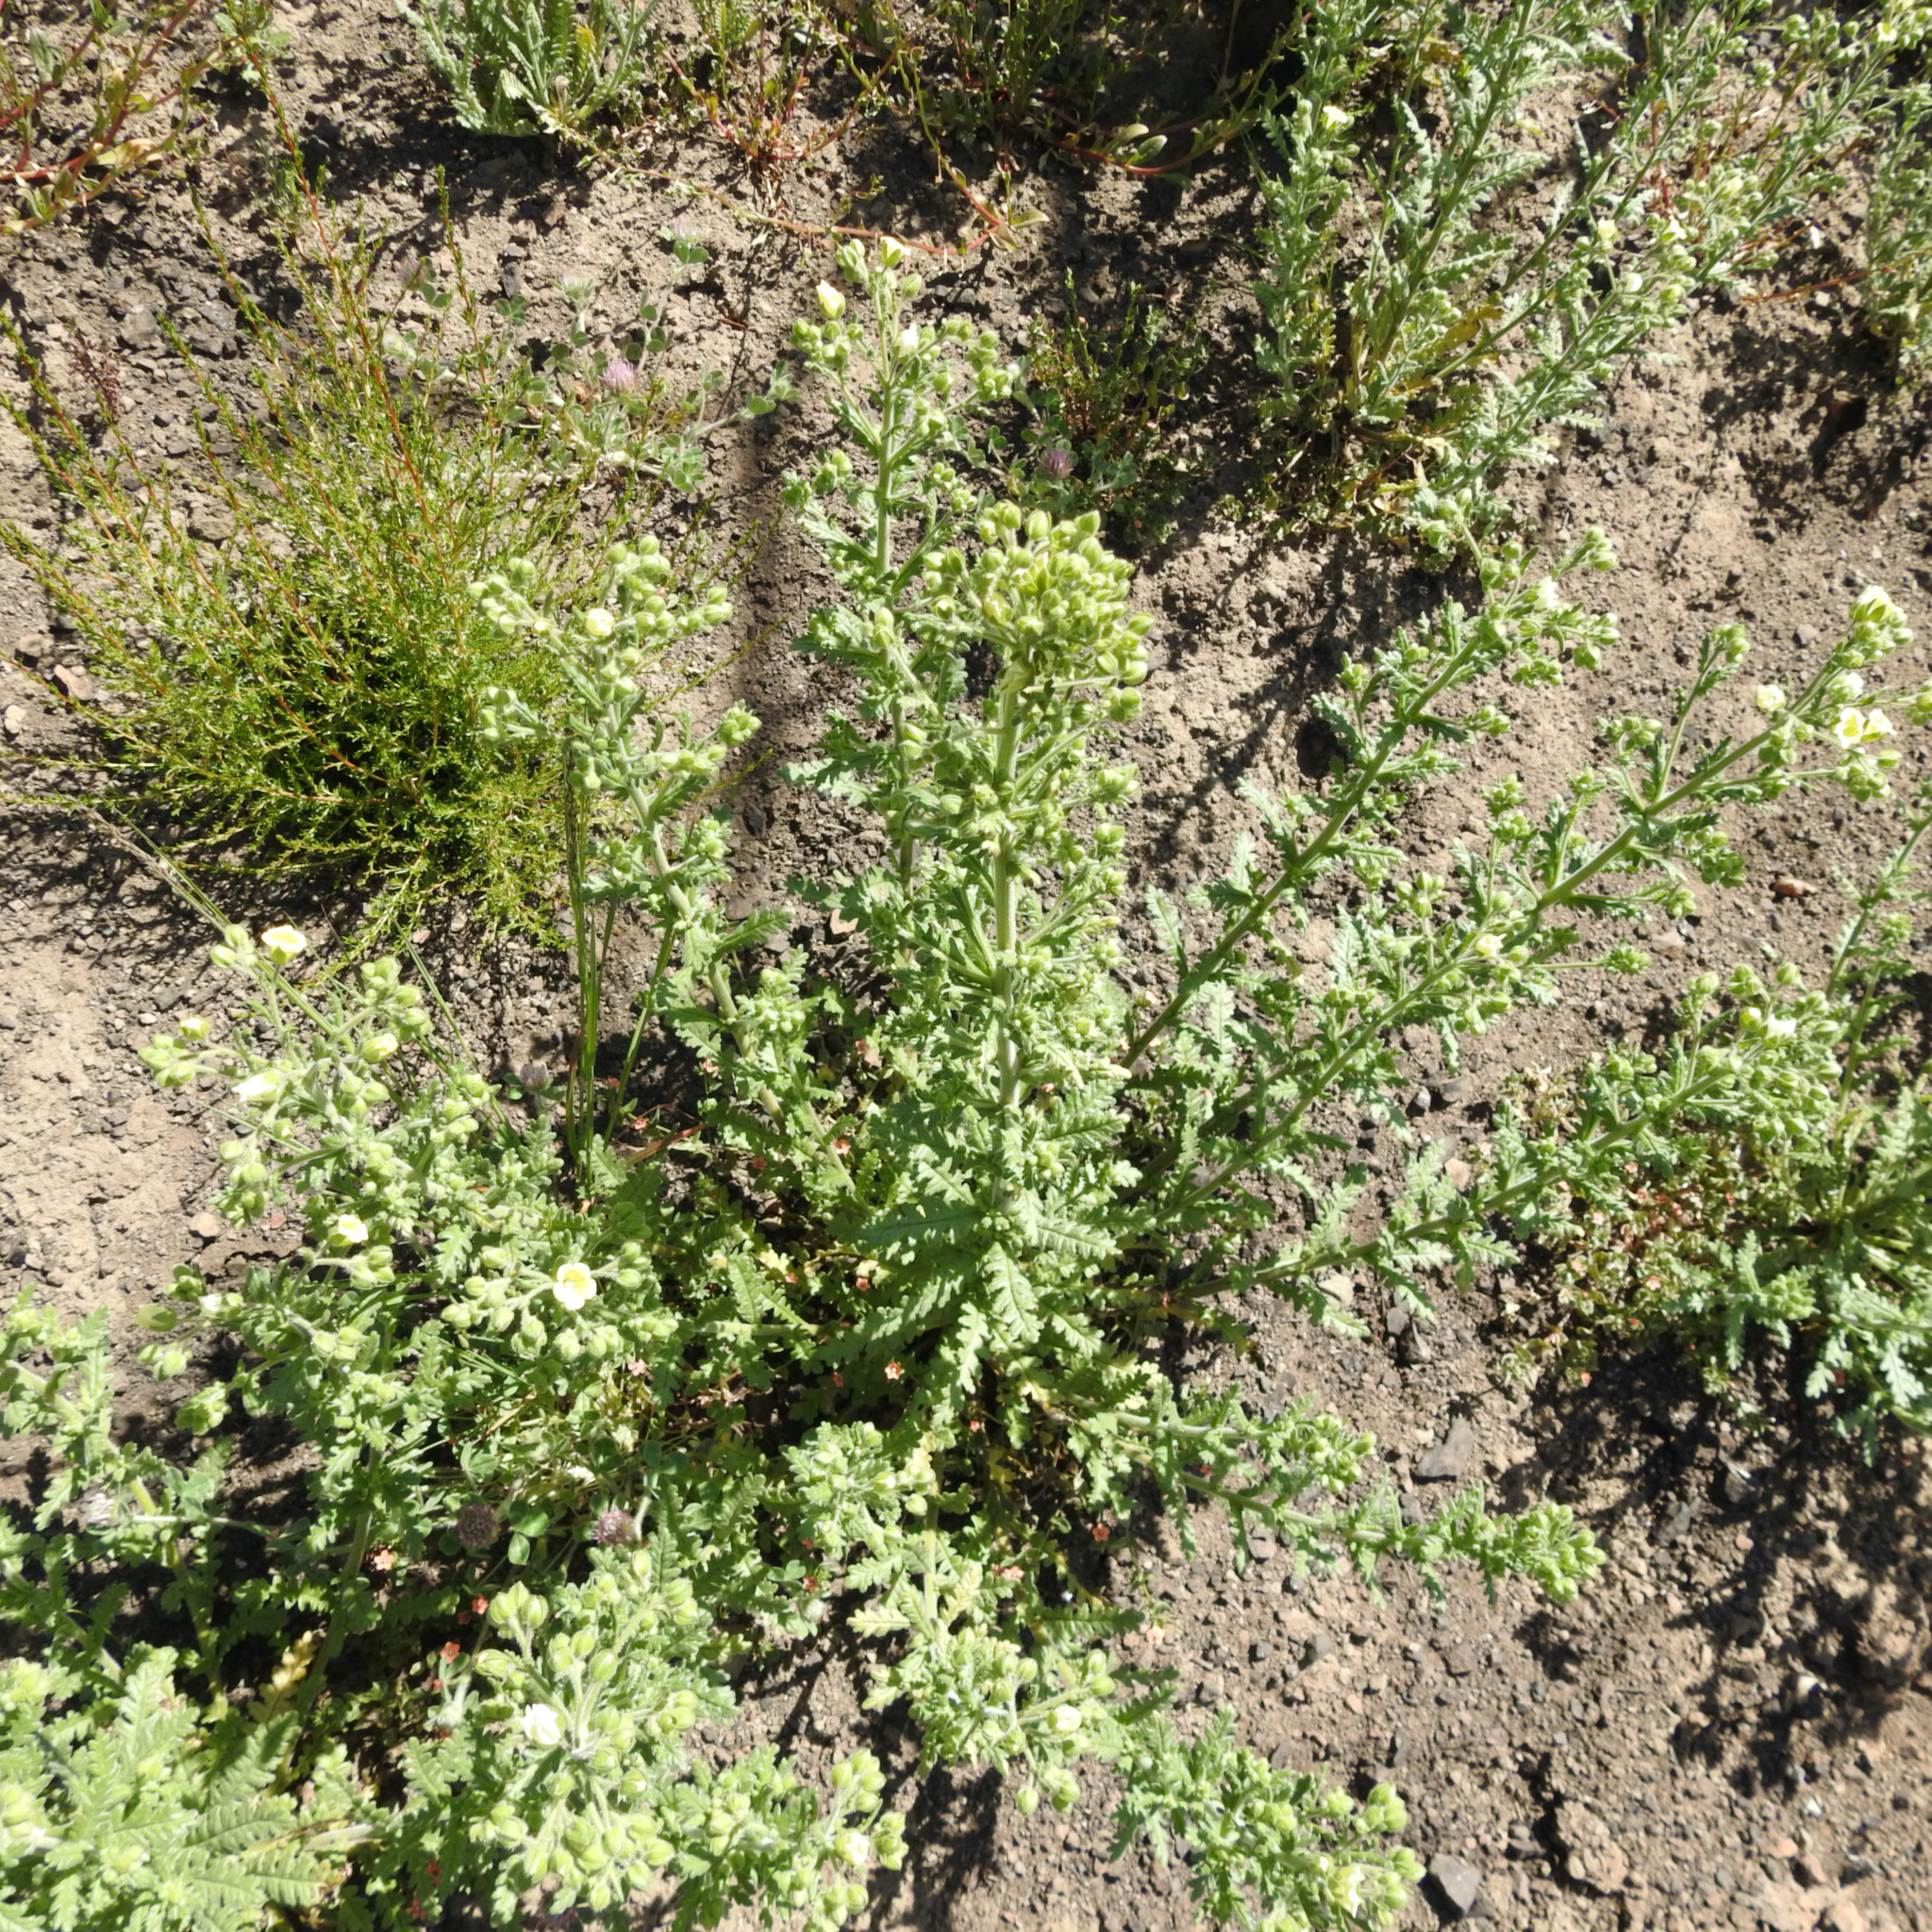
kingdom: Plantae
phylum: Tracheophyta
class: Magnoliopsida
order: Boraginales
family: Hydrophyllaceae
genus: Emmenanthe
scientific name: Emmenanthe penduliflora
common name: Whispering-bells
